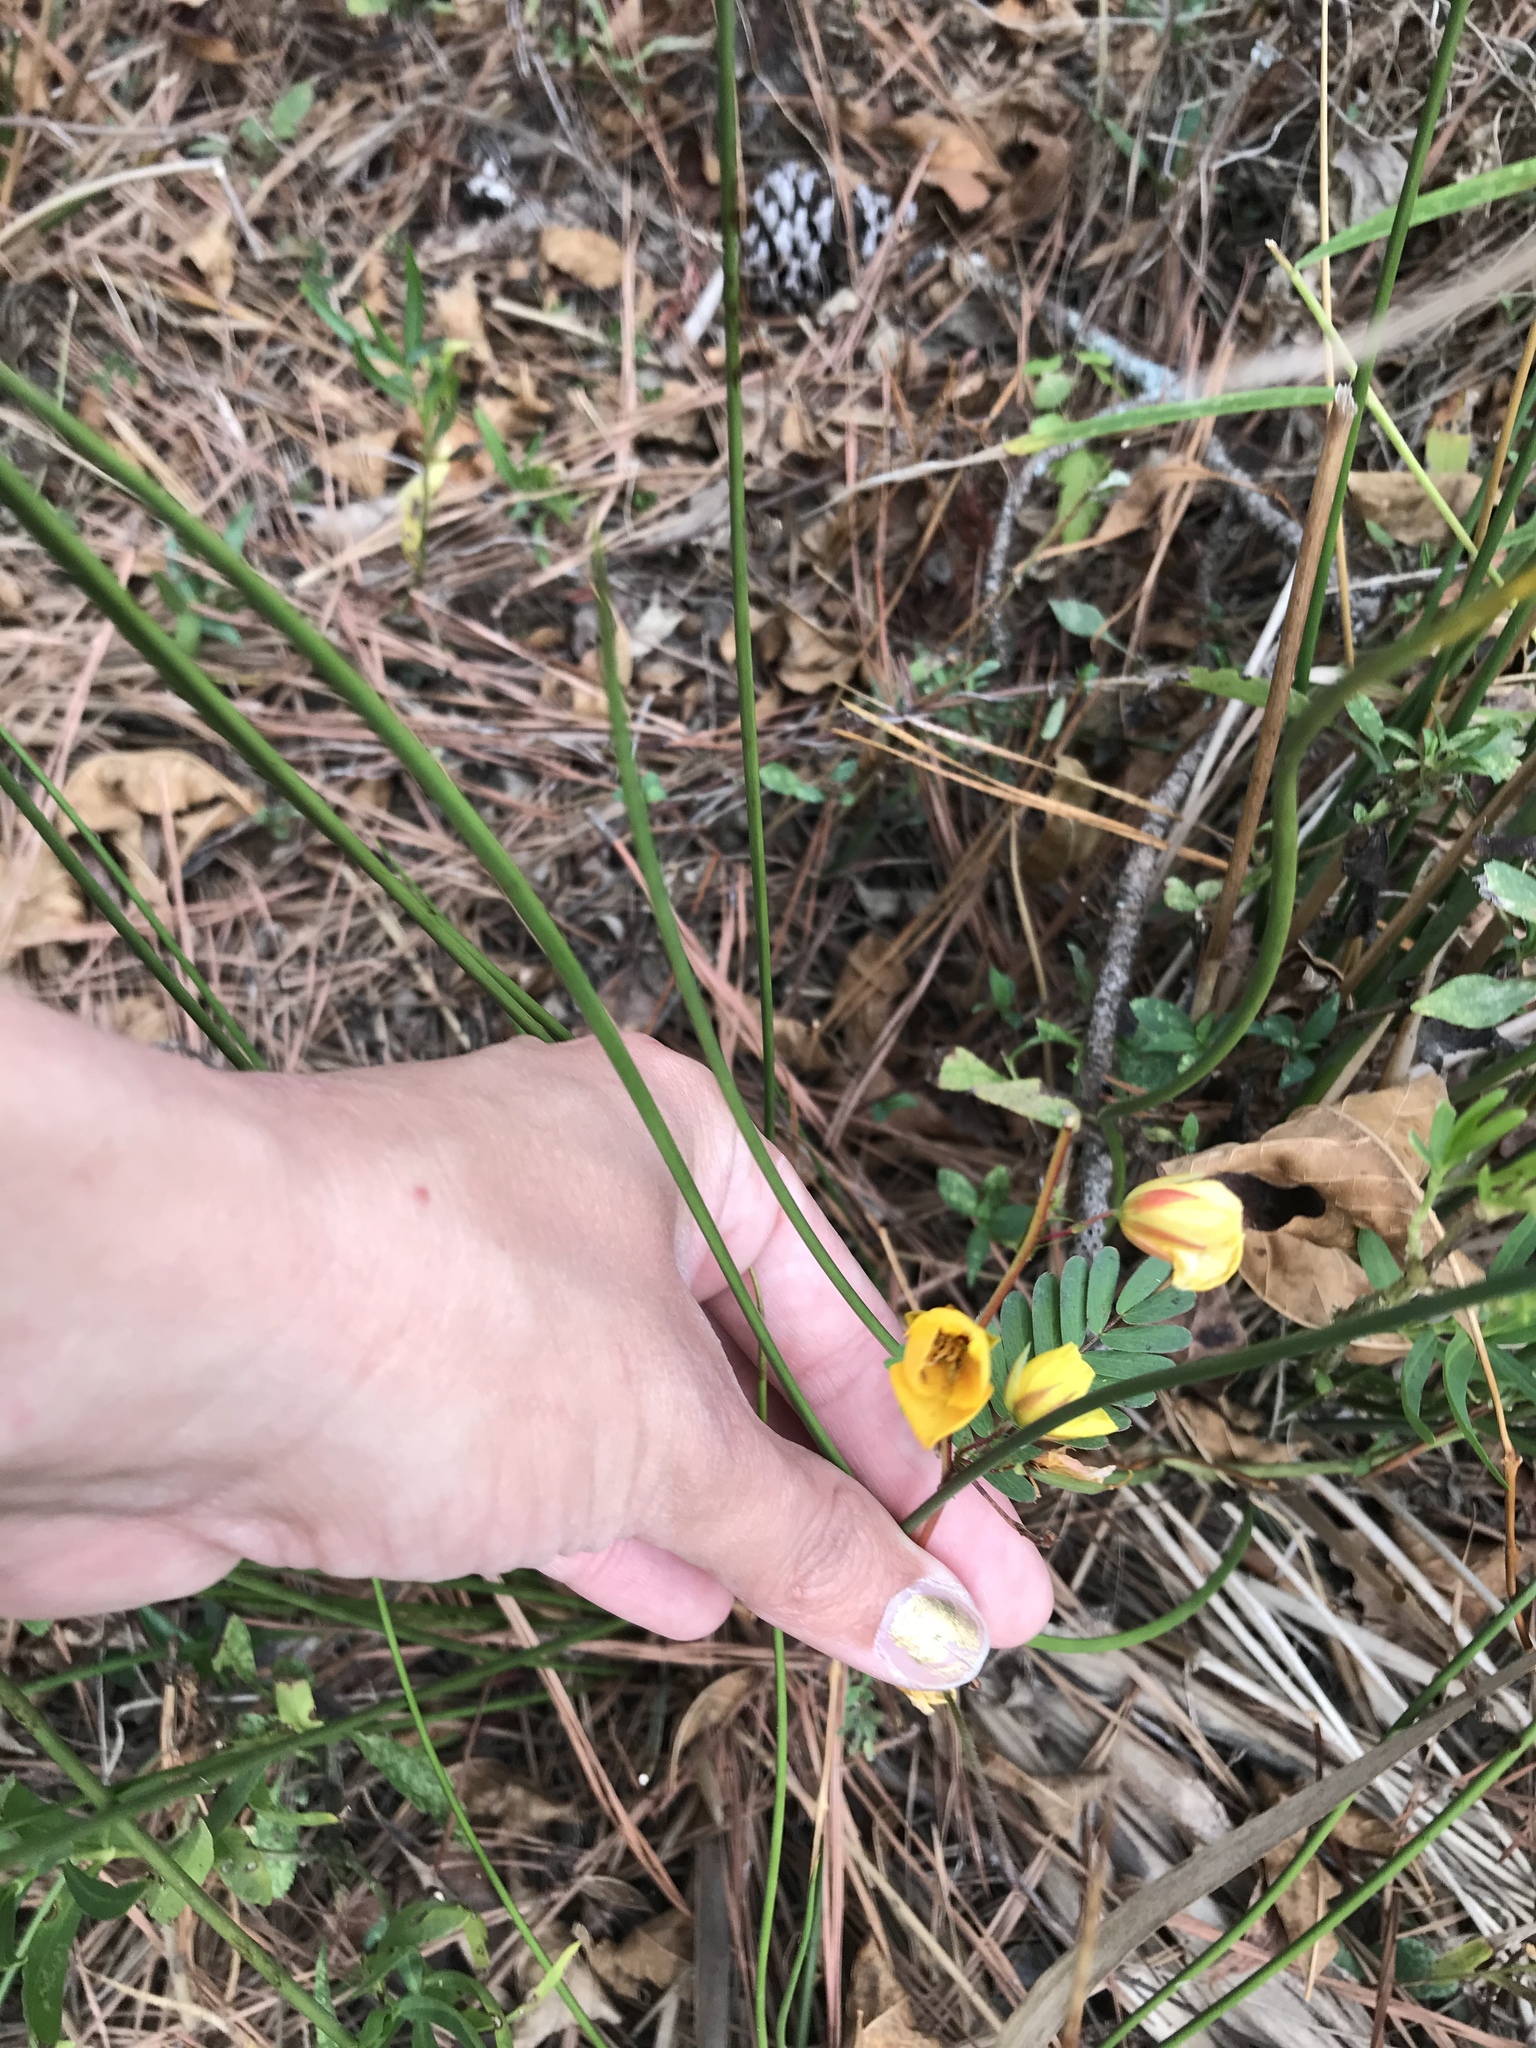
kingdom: Plantae
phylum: Tracheophyta
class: Magnoliopsida
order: Fabales
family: Fabaceae
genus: Chamaecrista
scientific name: Chamaecrista nictitans
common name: Sensitive cassia
